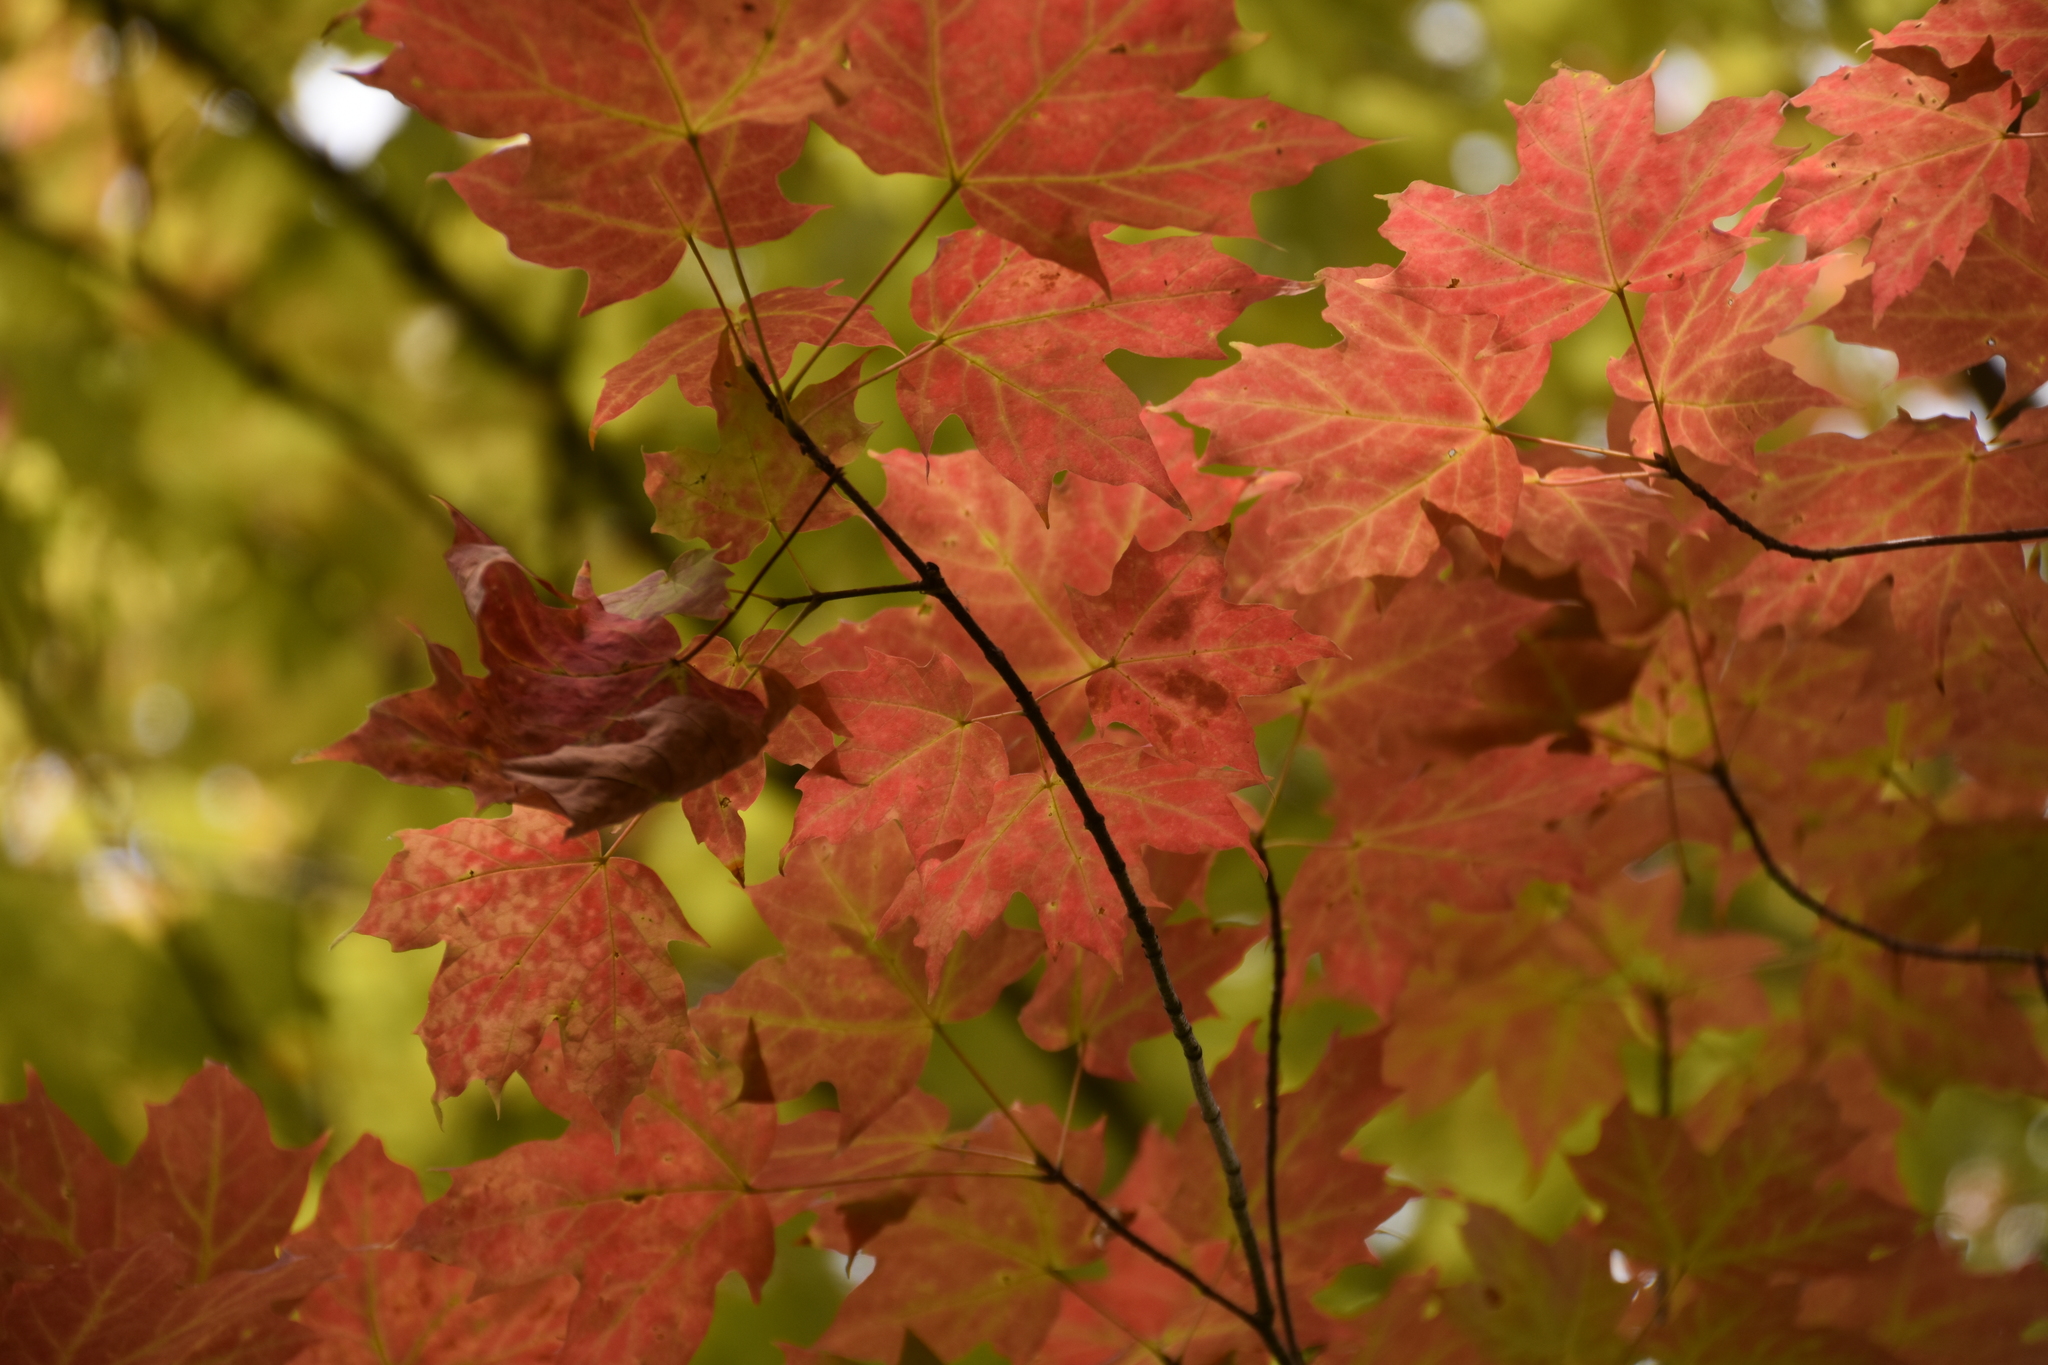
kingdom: Plantae
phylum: Tracheophyta
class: Magnoliopsida
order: Sapindales
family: Sapindaceae
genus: Acer
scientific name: Acer saccharum
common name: Sugar maple
